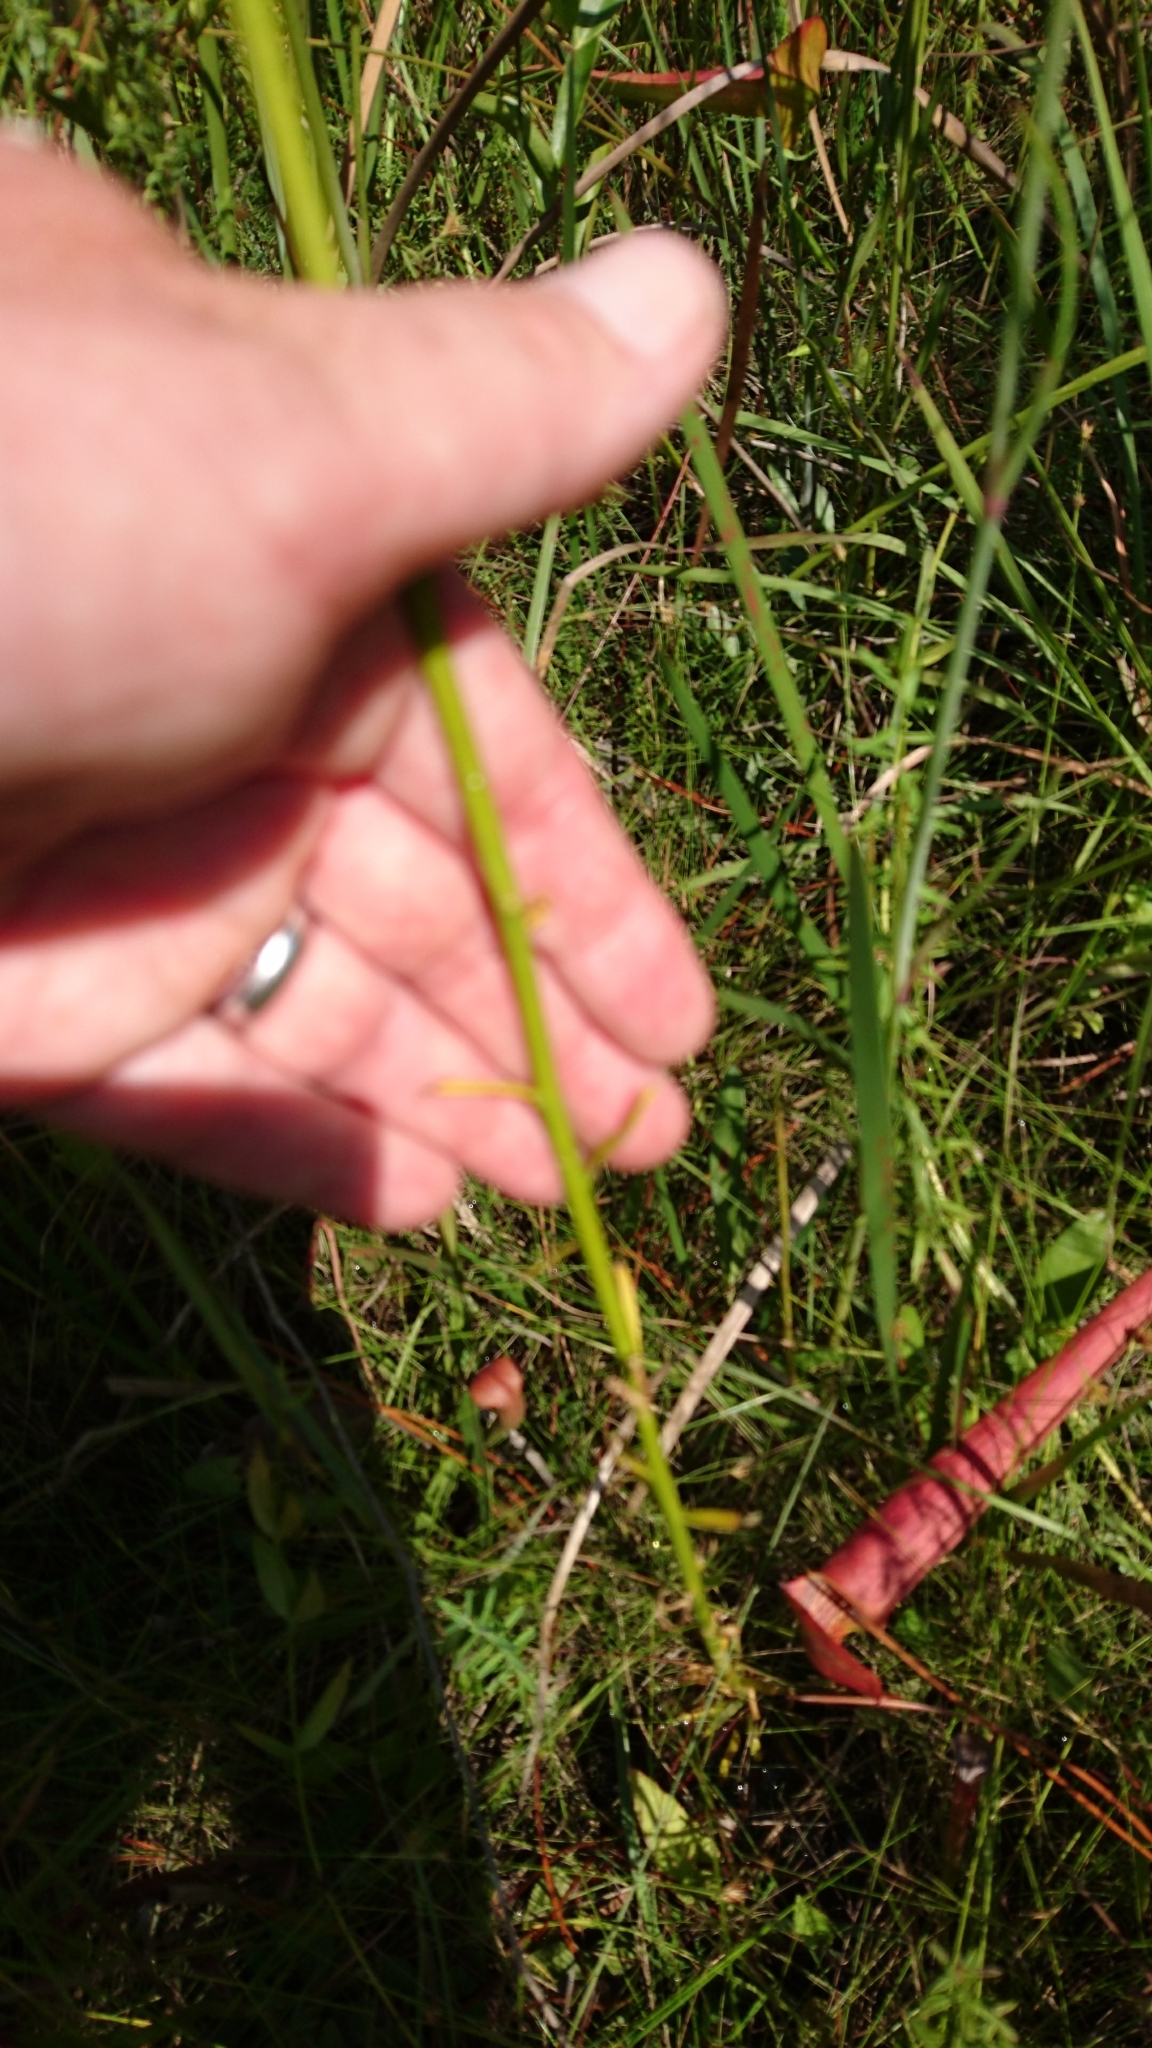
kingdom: Plantae
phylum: Tracheophyta
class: Magnoliopsida
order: Fabales
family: Polygalaceae
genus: Polygala
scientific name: Polygala cymosa
